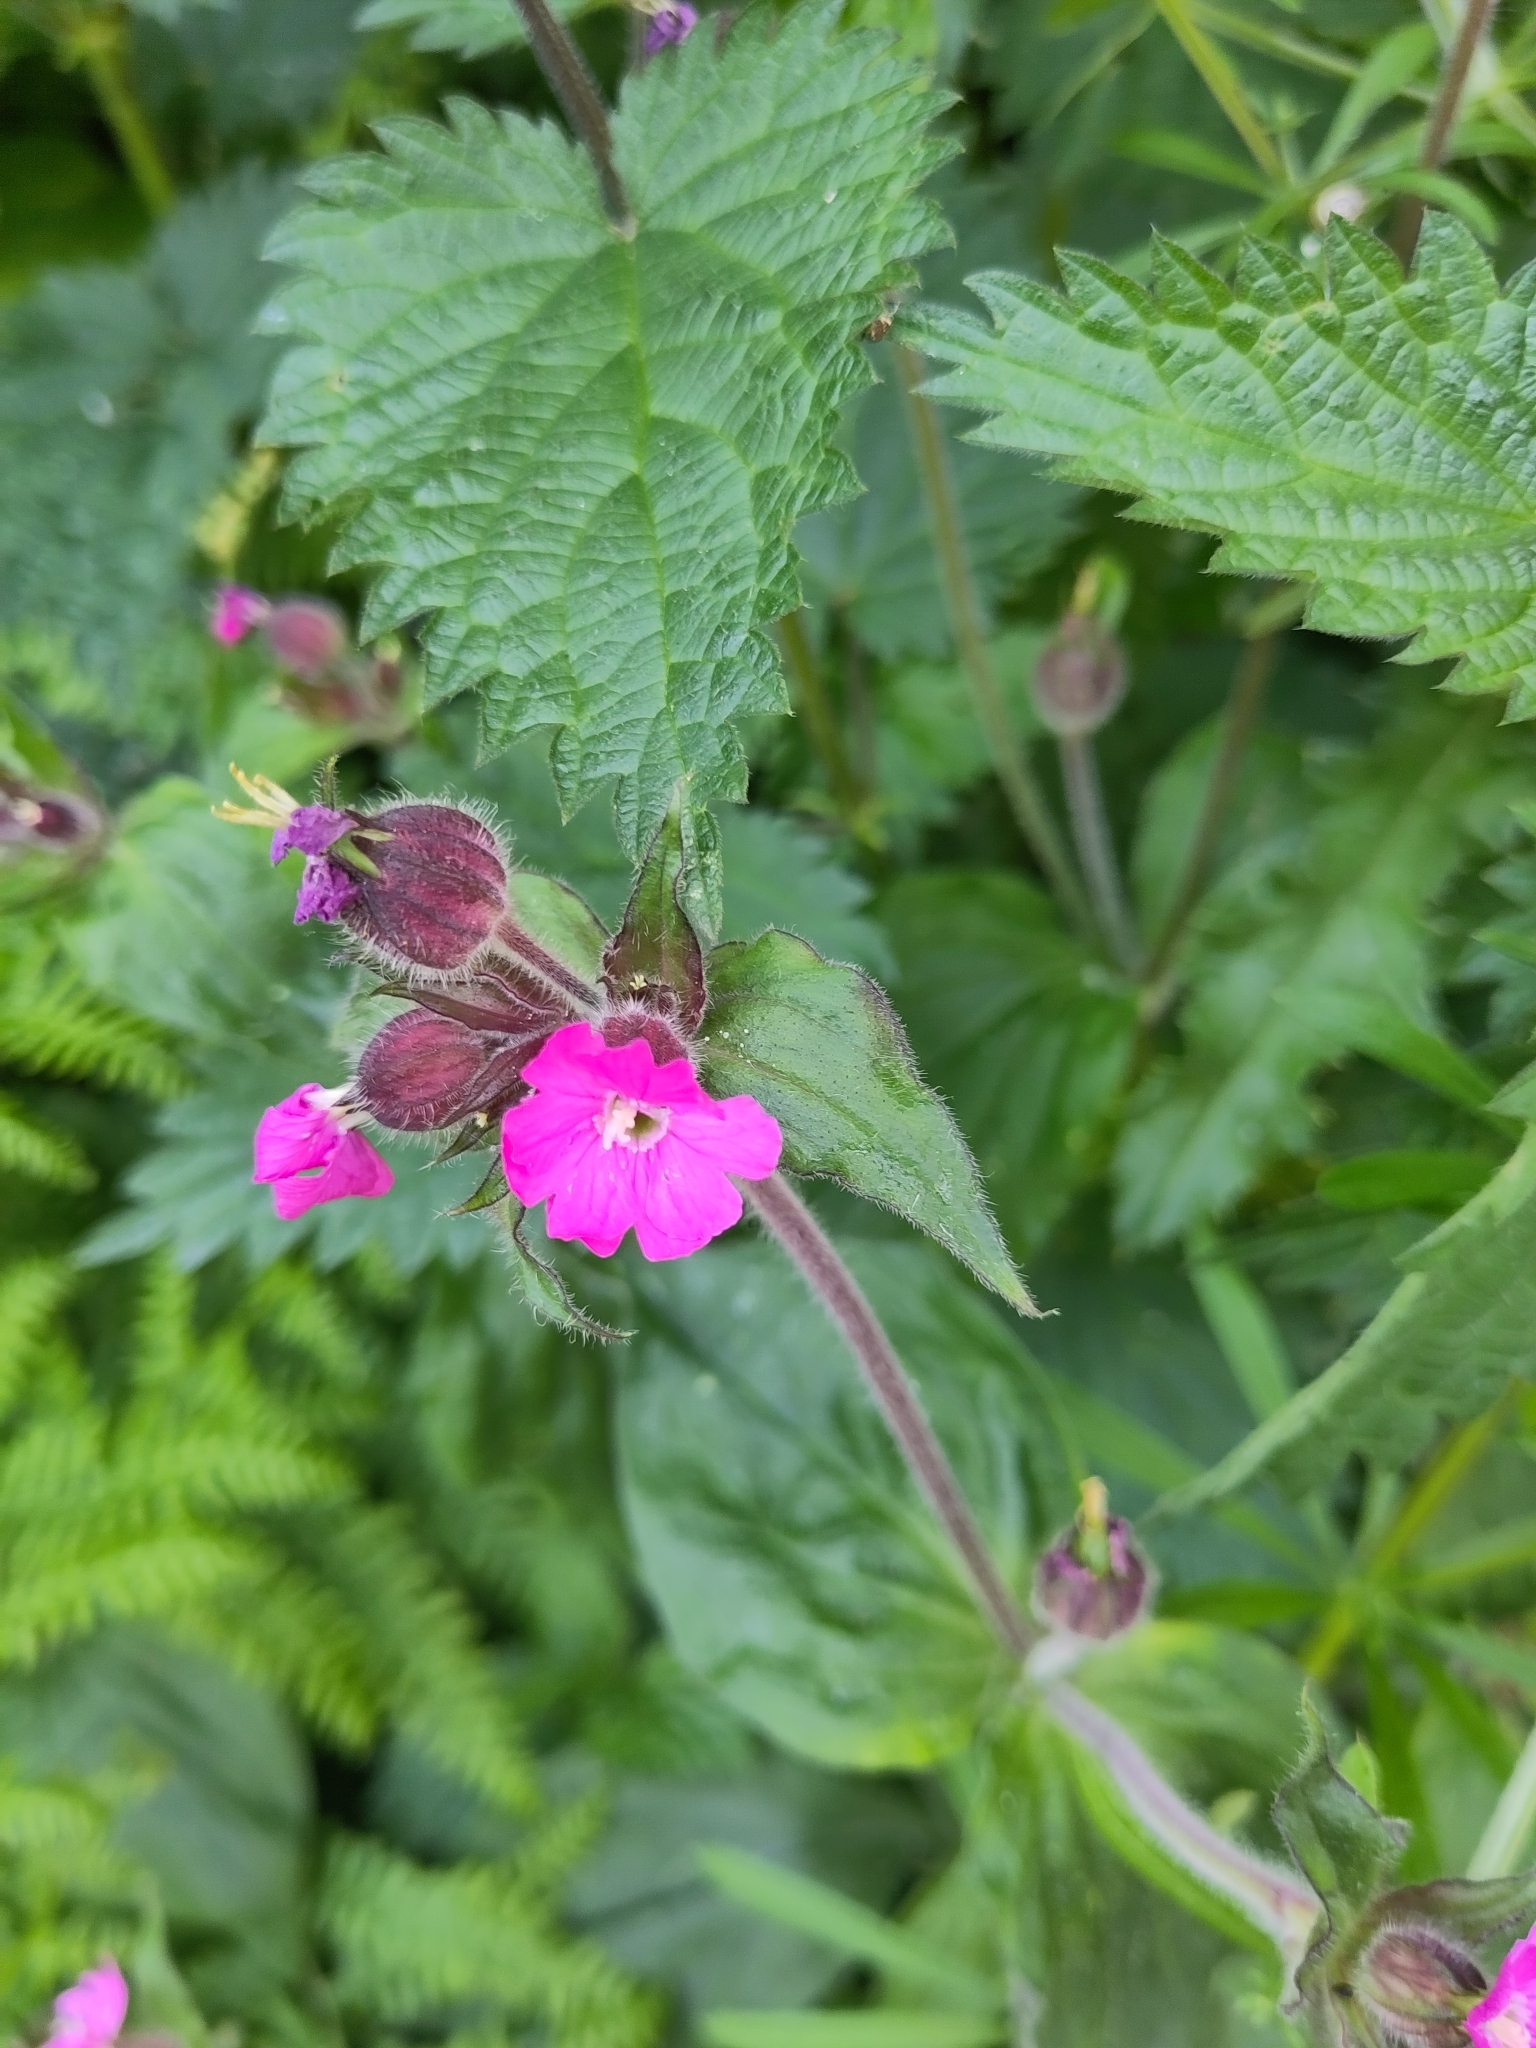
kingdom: Plantae
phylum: Tracheophyta
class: Magnoliopsida
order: Caryophyllales
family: Caryophyllaceae
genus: Silene
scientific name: Silene dioica
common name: Red campion
